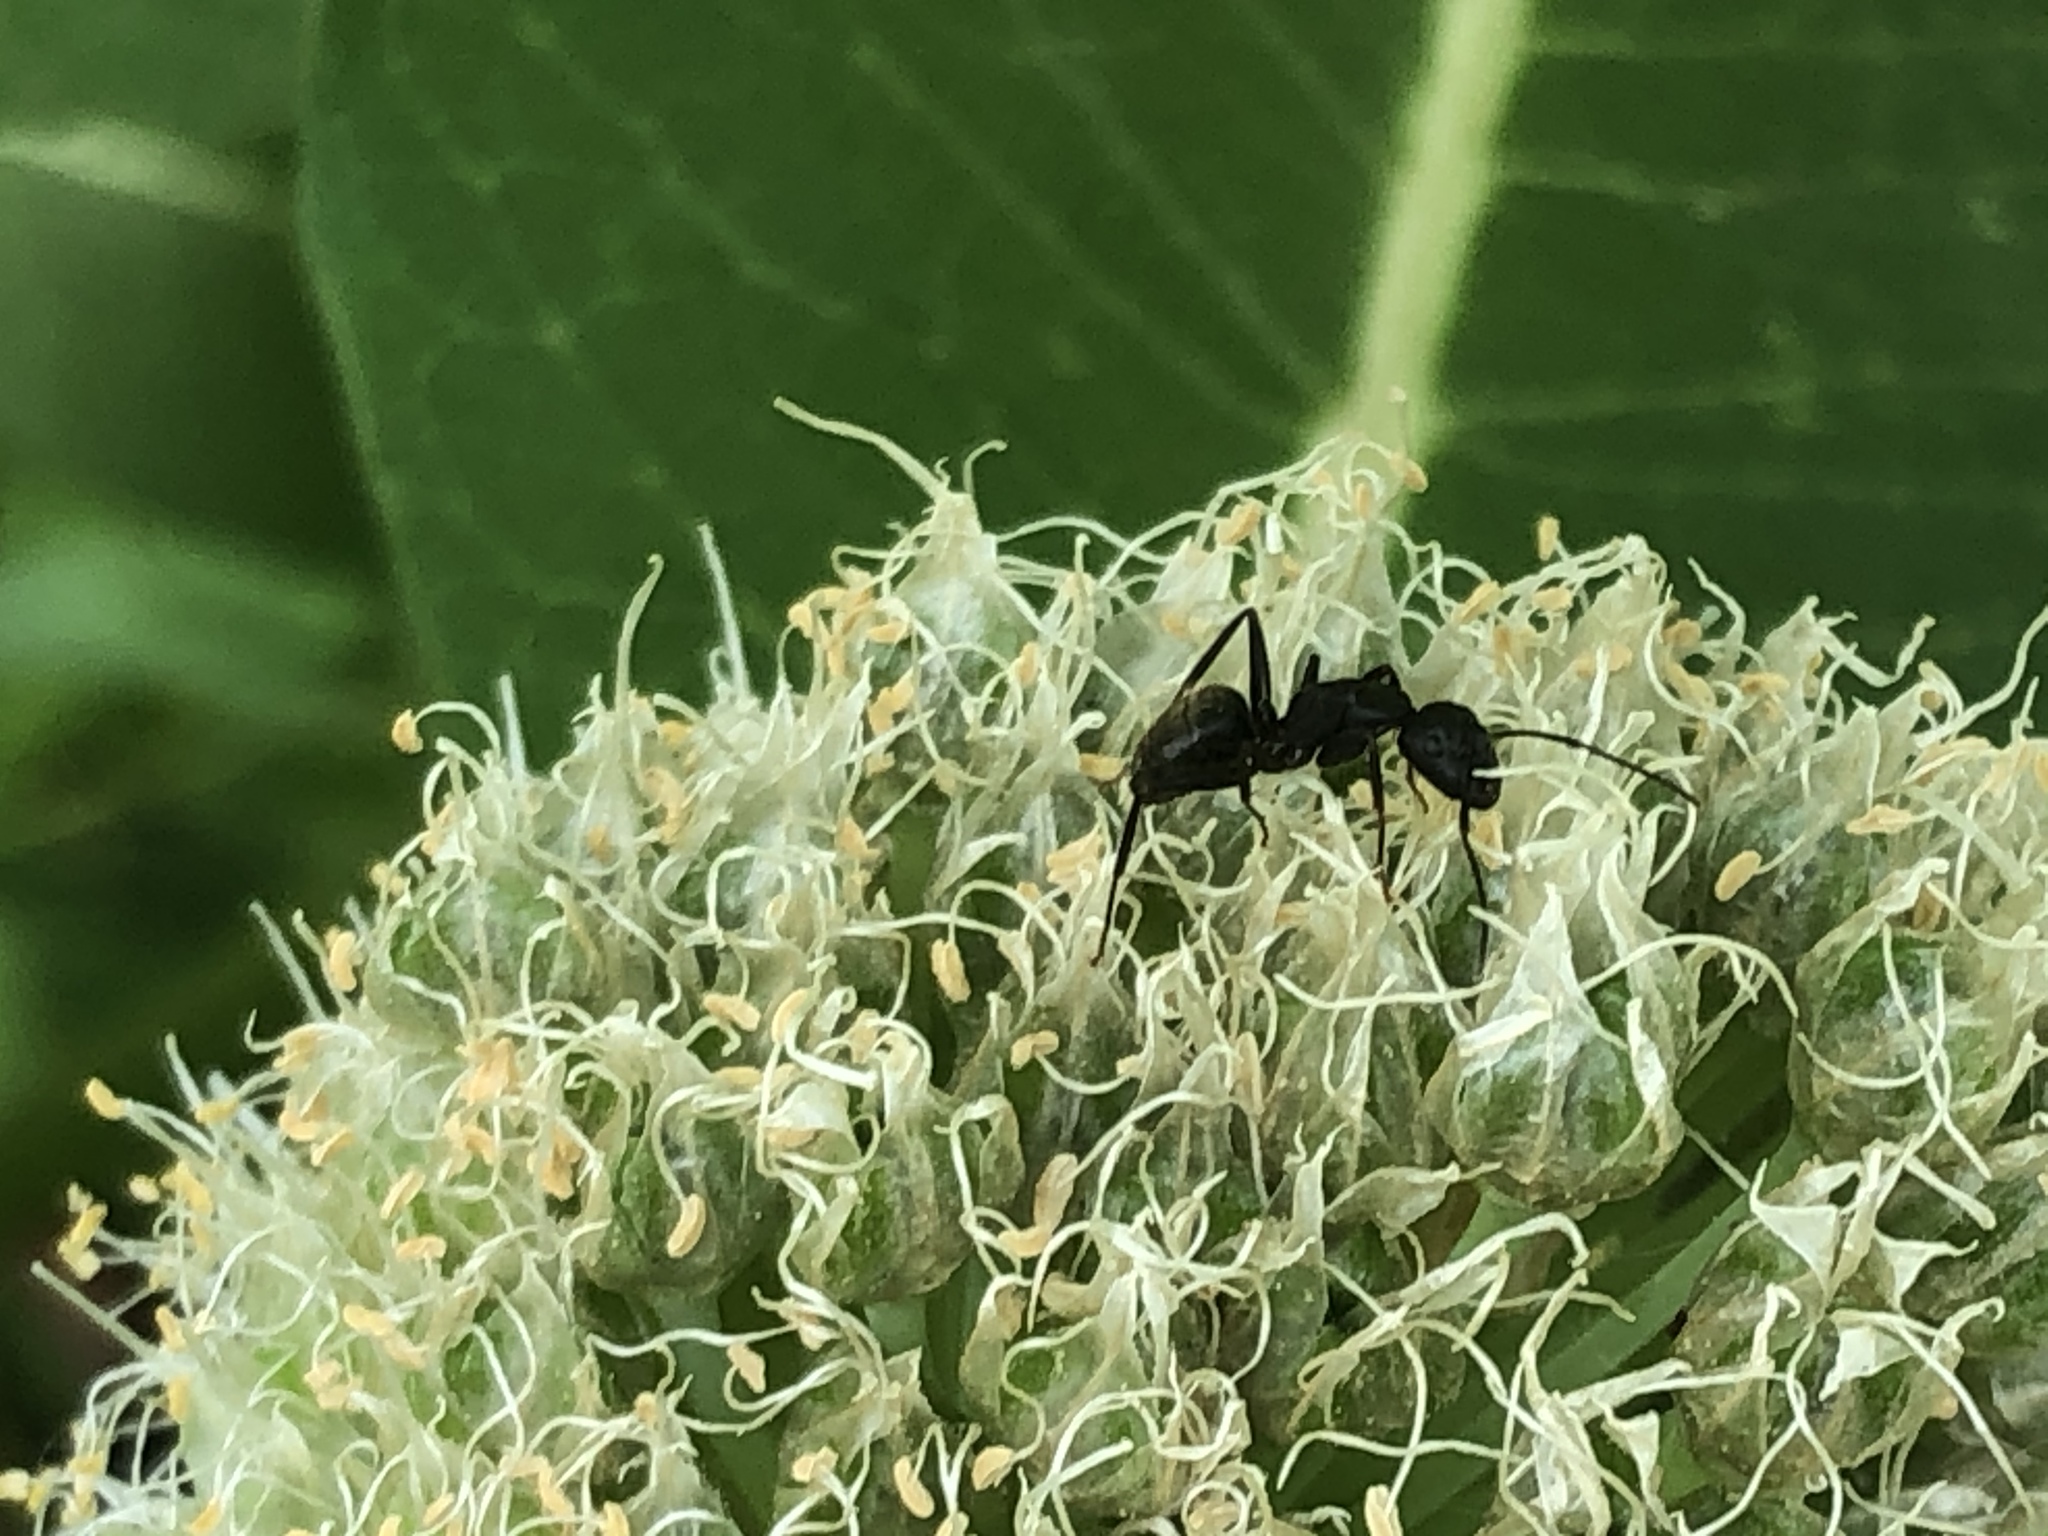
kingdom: Animalia
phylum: Arthropoda
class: Insecta
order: Hymenoptera
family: Formicidae
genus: Camponotus
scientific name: Camponotus pennsylvanicus
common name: Black carpenter ant
